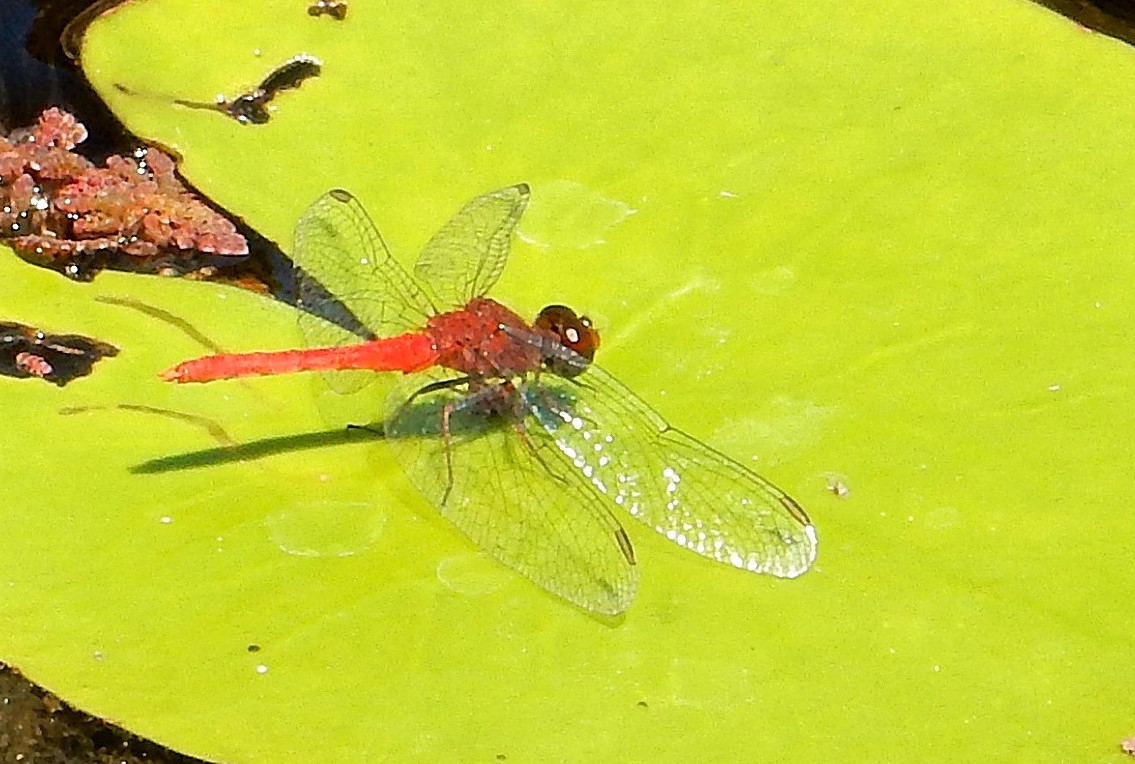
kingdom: Animalia
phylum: Arthropoda
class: Insecta
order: Odonata
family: Libellulidae
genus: Nannodiplax
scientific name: Nannodiplax rubra
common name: Pygmy percher
